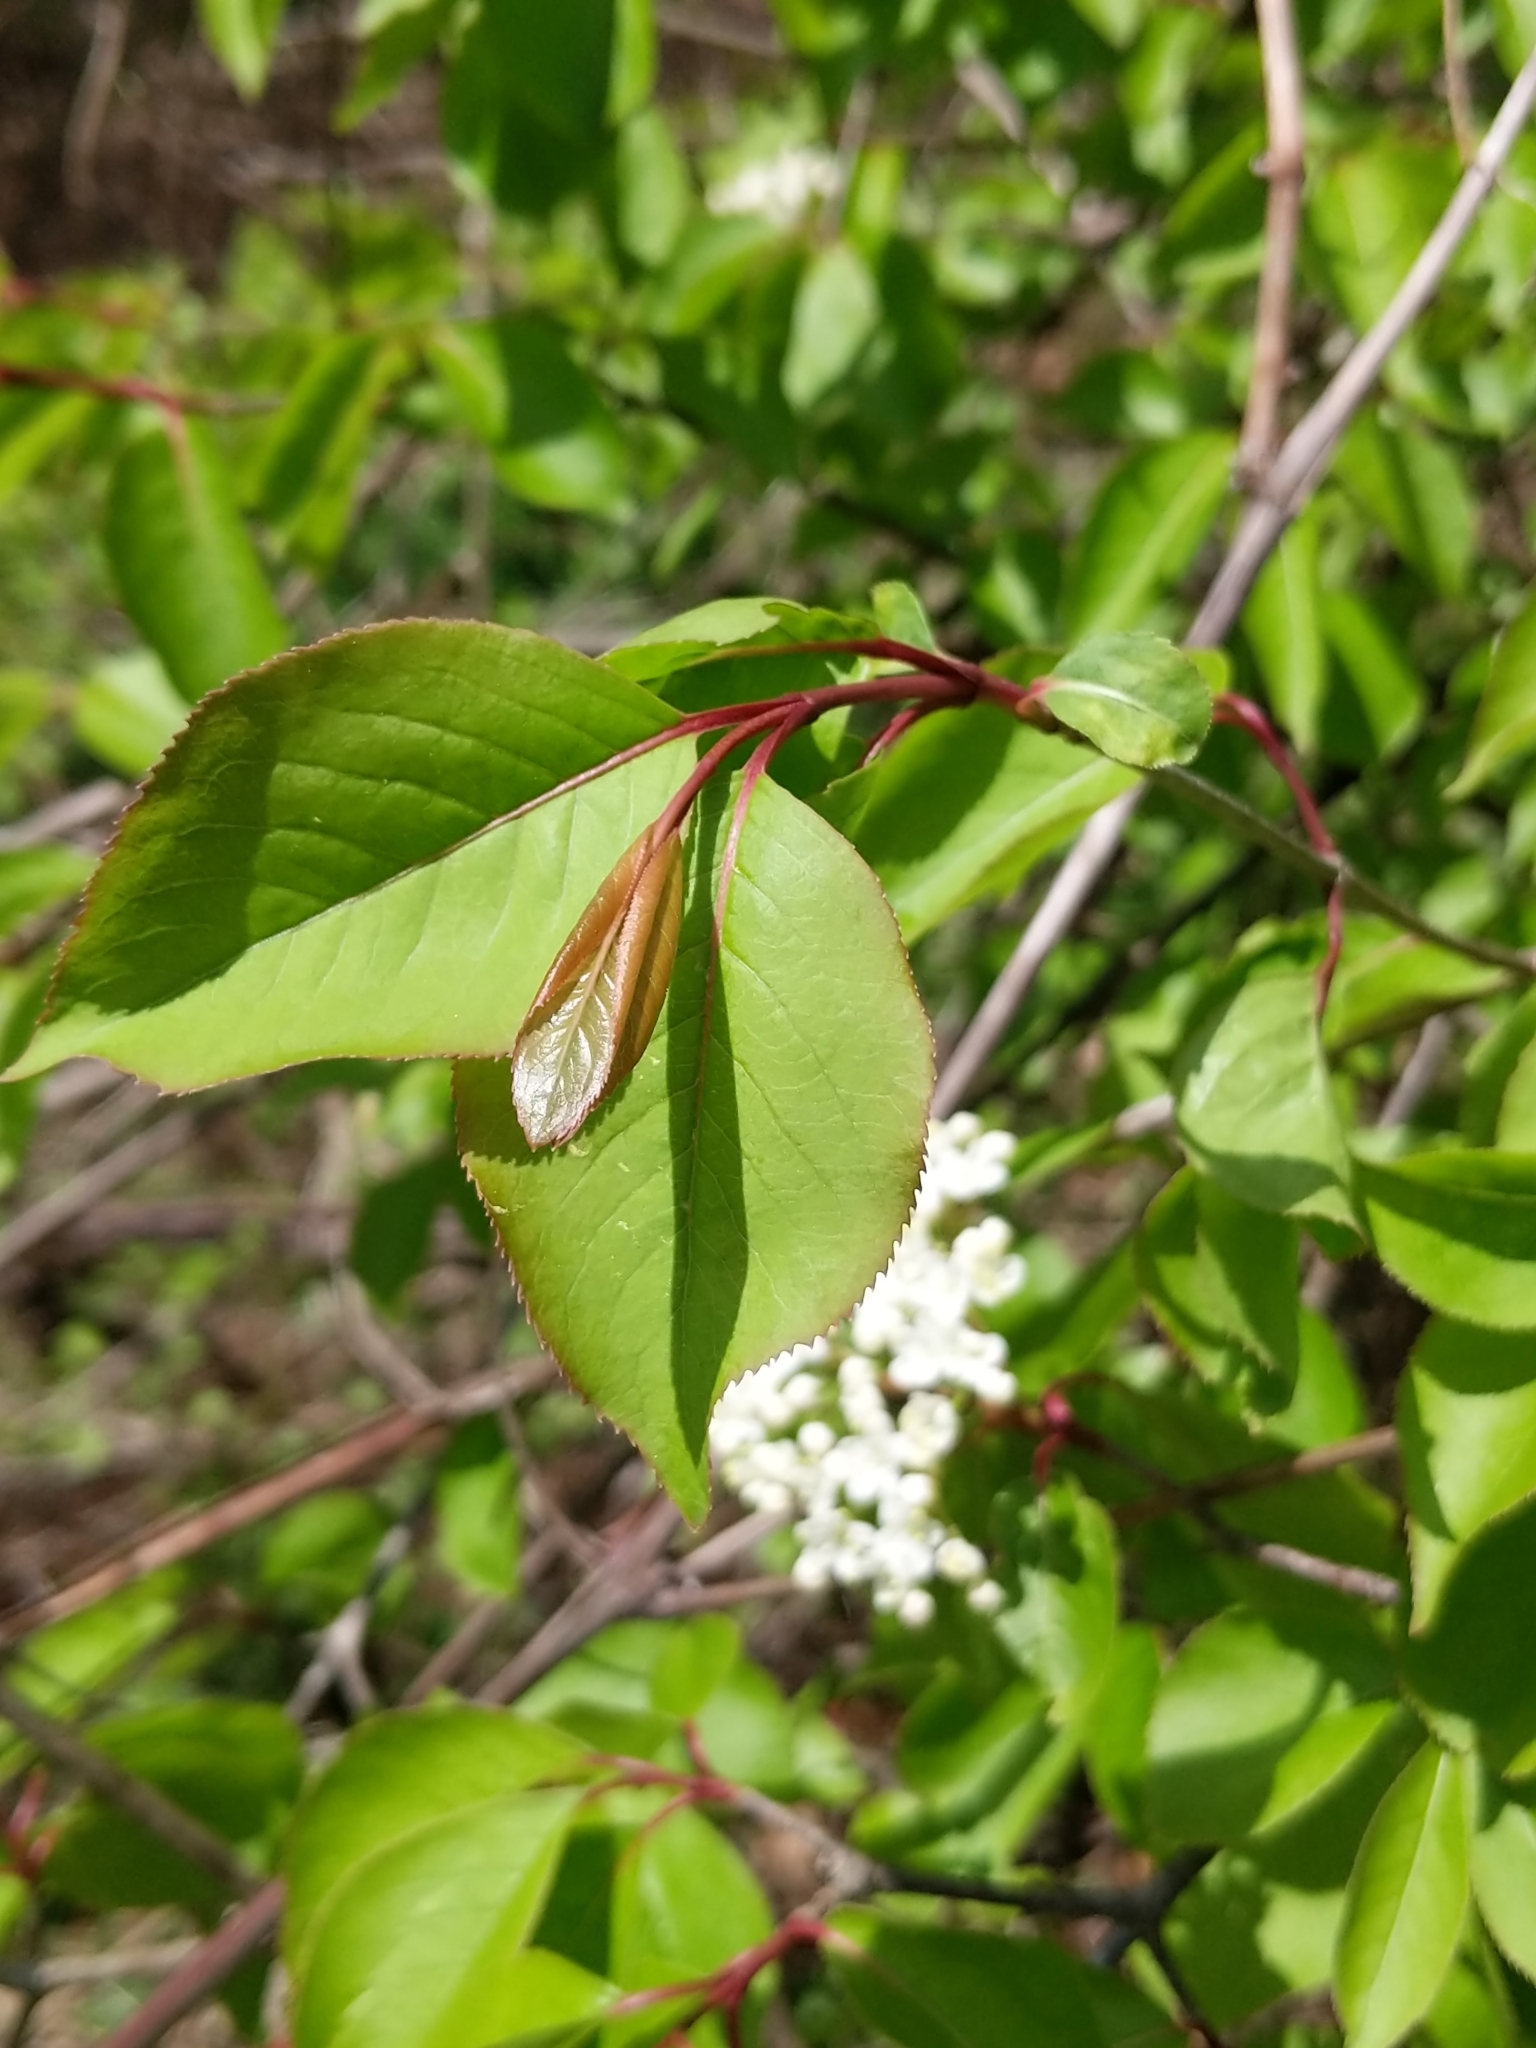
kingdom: Plantae
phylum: Tracheophyta
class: Magnoliopsida
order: Dipsacales
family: Viburnaceae
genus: Viburnum
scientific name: Viburnum prunifolium
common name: Black haw
